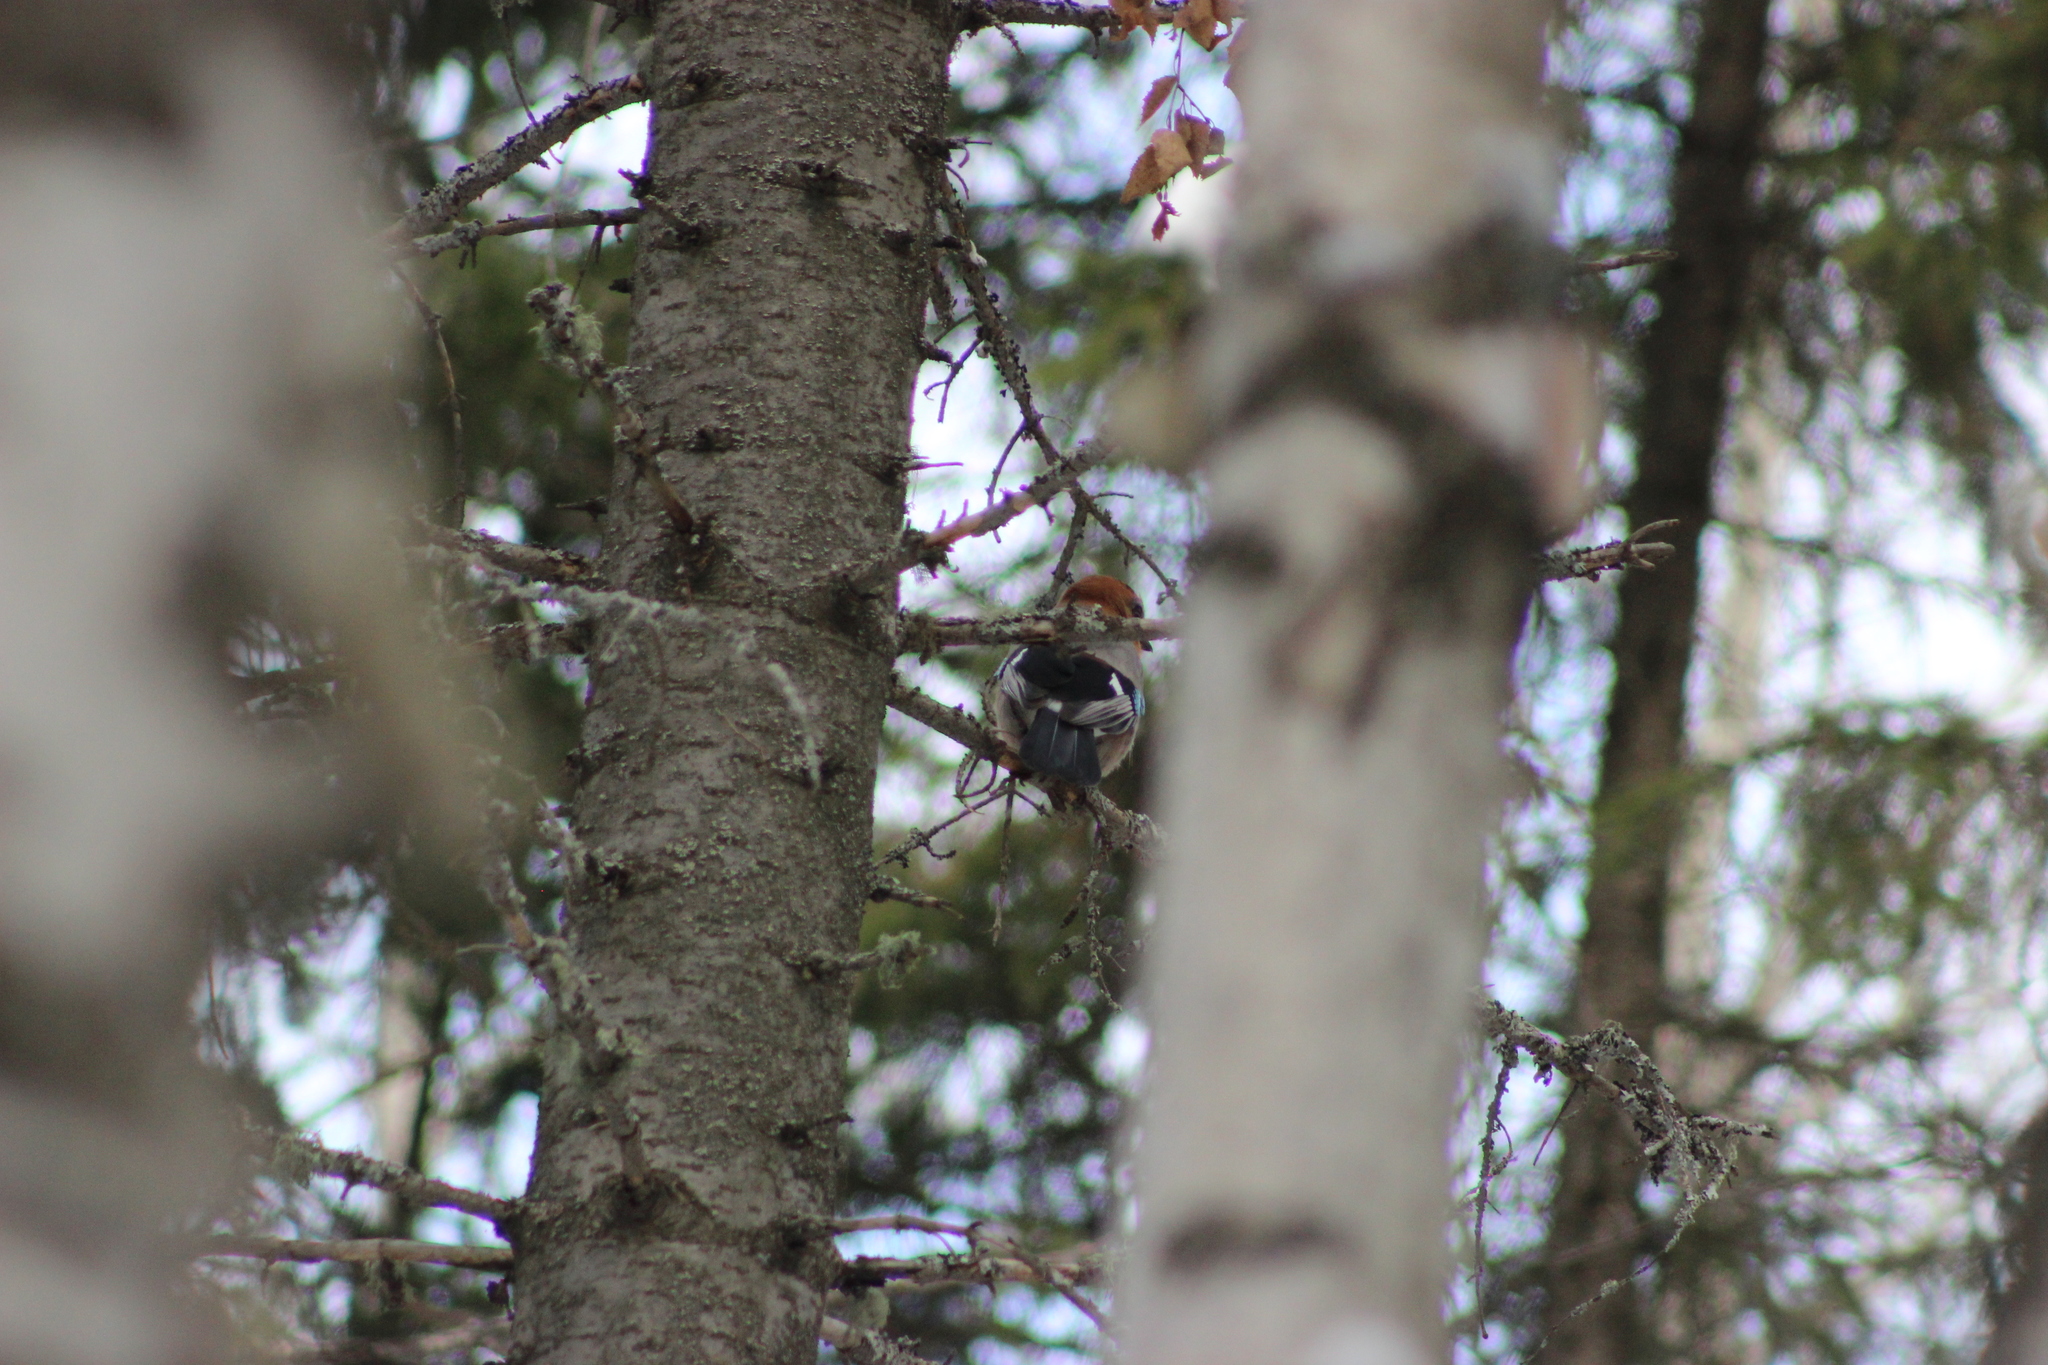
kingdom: Animalia
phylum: Chordata
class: Aves
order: Passeriformes
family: Corvidae
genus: Garrulus
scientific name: Garrulus glandarius
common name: Eurasian jay
